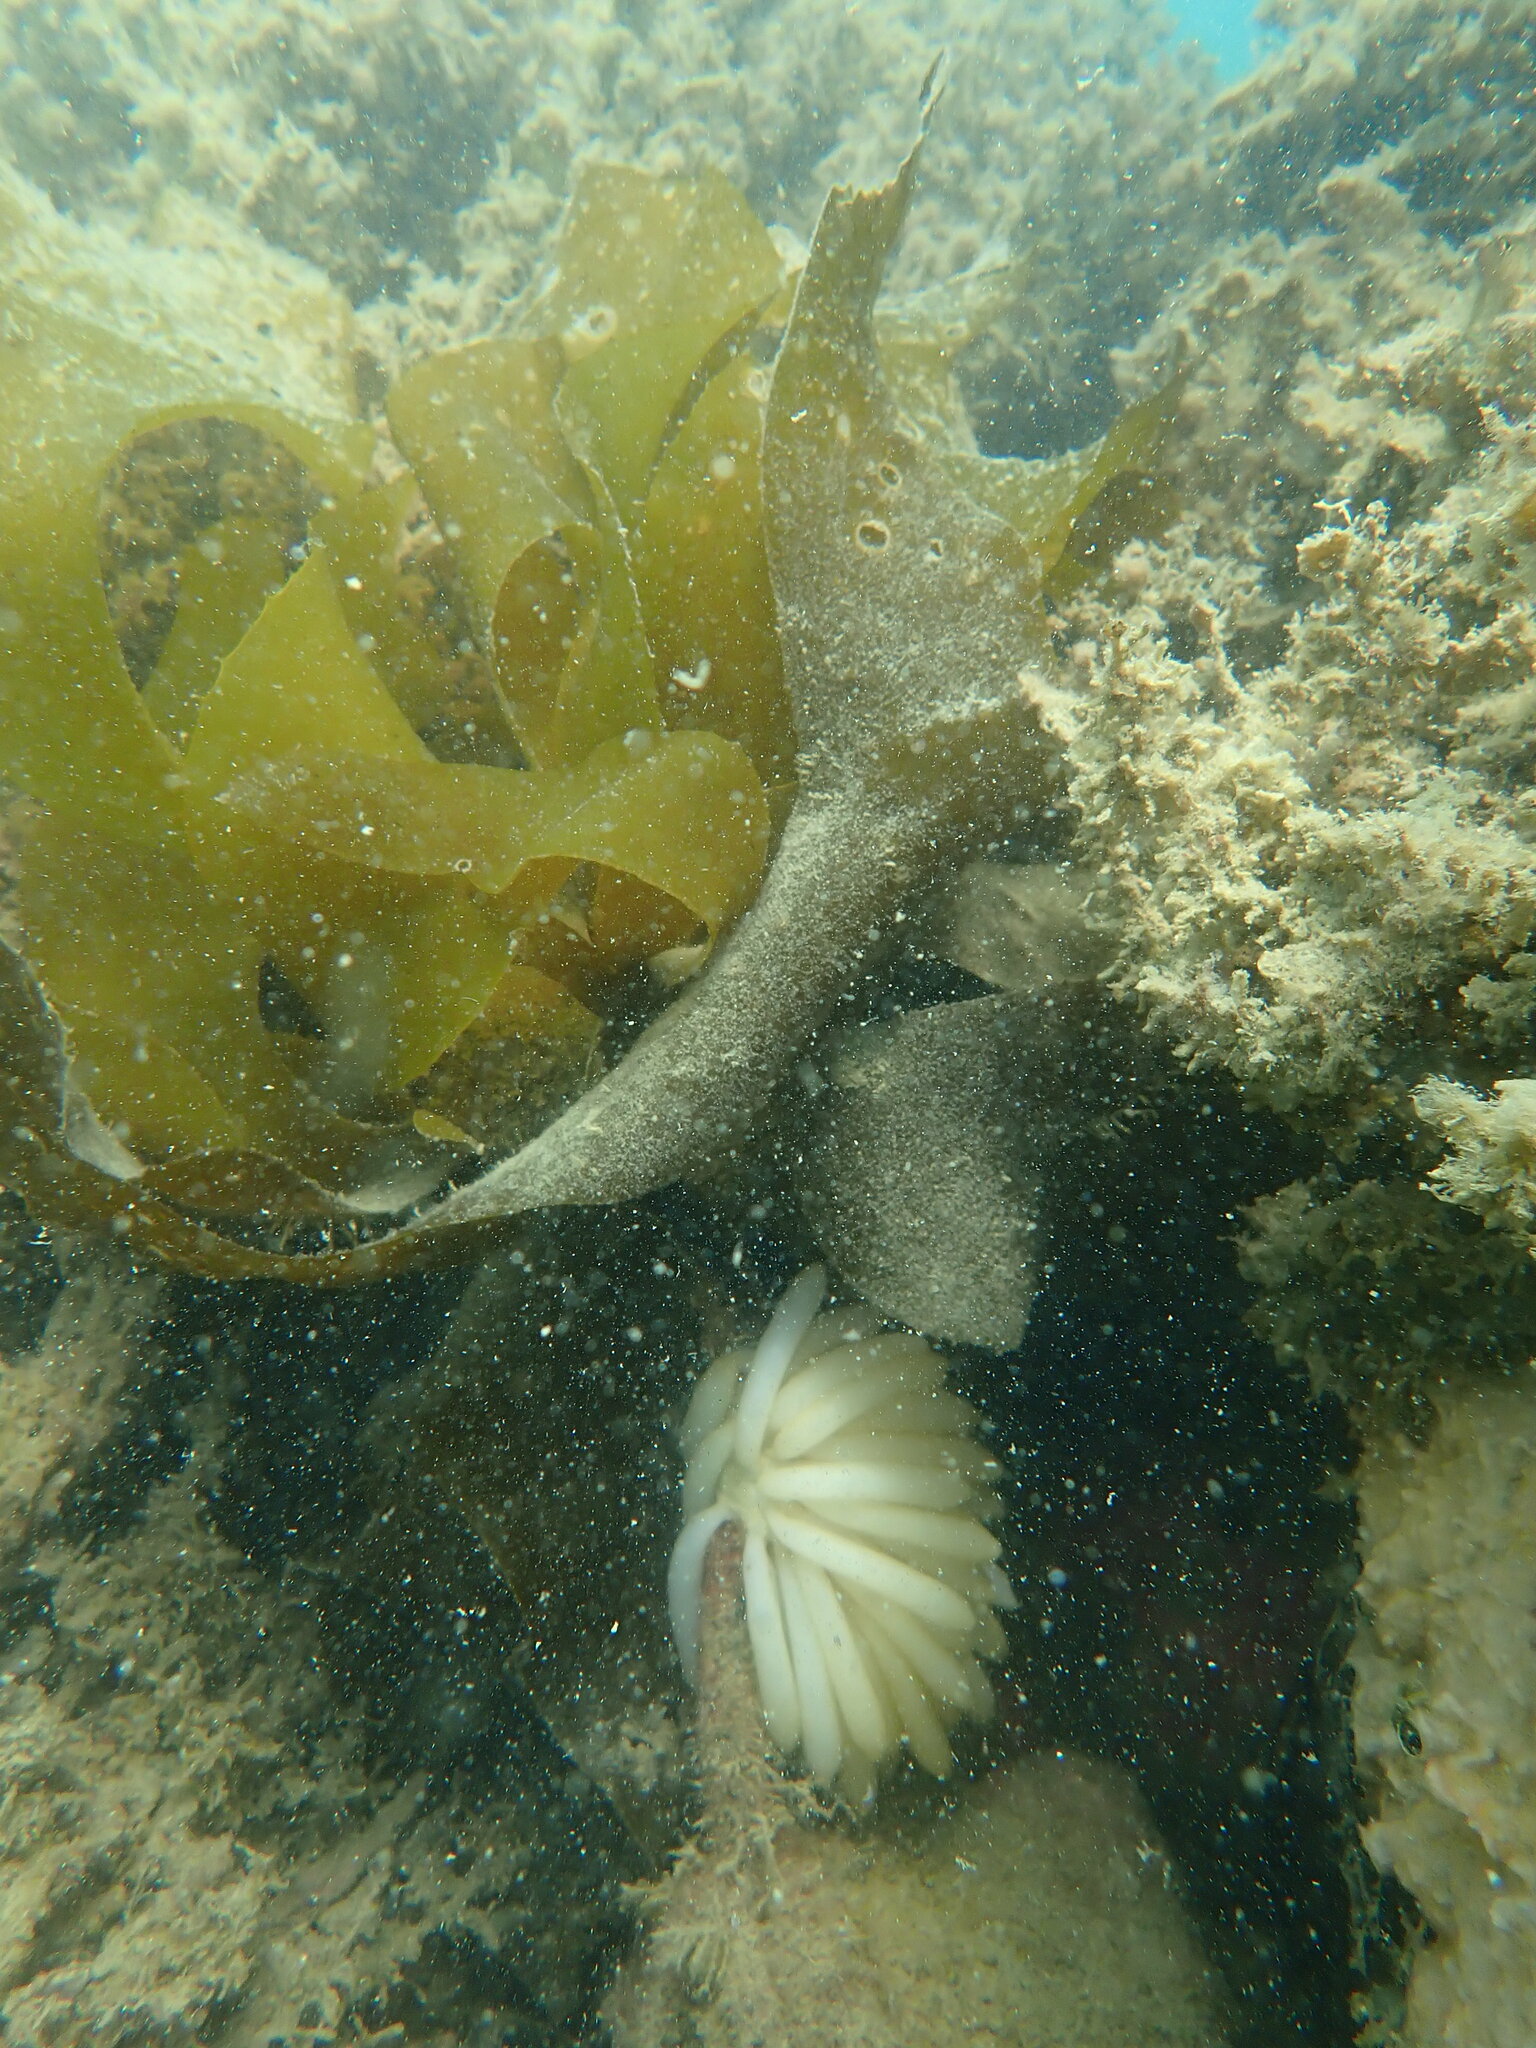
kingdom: Animalia
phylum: Mollusca
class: Cephalopoda
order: Myopsida
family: Loliginidae
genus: Sepioteuthis
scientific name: Sepioteuthis australis
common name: Southern reef squid
